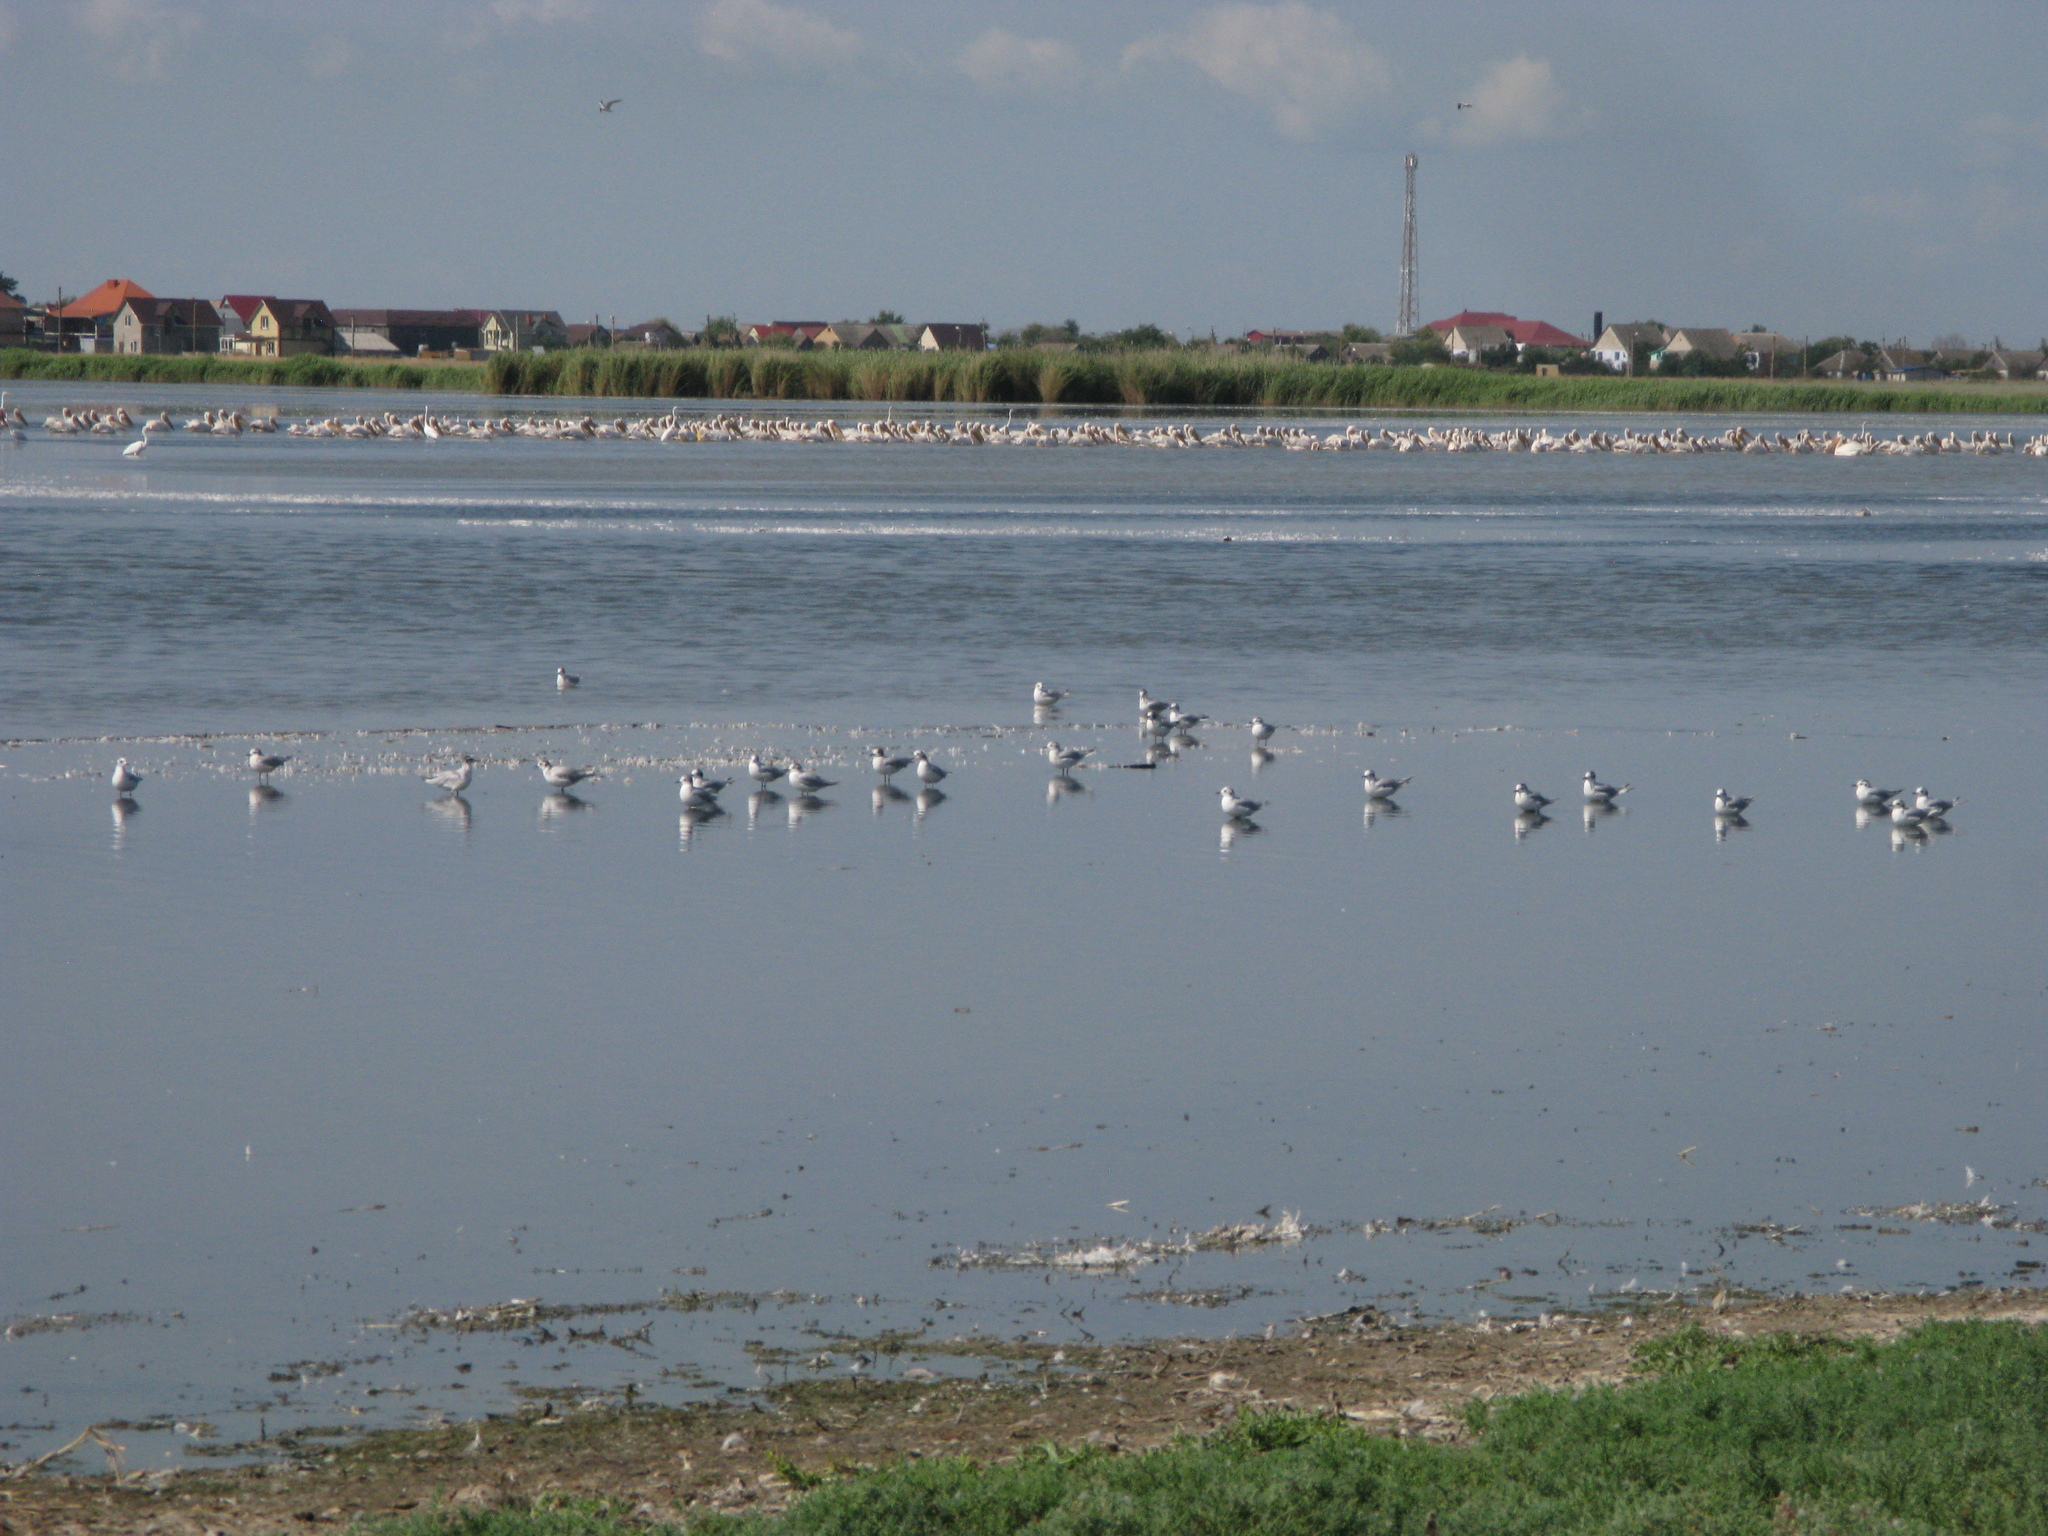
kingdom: Animalia
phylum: Chordata
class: Aves
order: Charadriiformes
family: Laridae
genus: Hydrocoloeus
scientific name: Hydrocoloeus minutus
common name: Little gull
